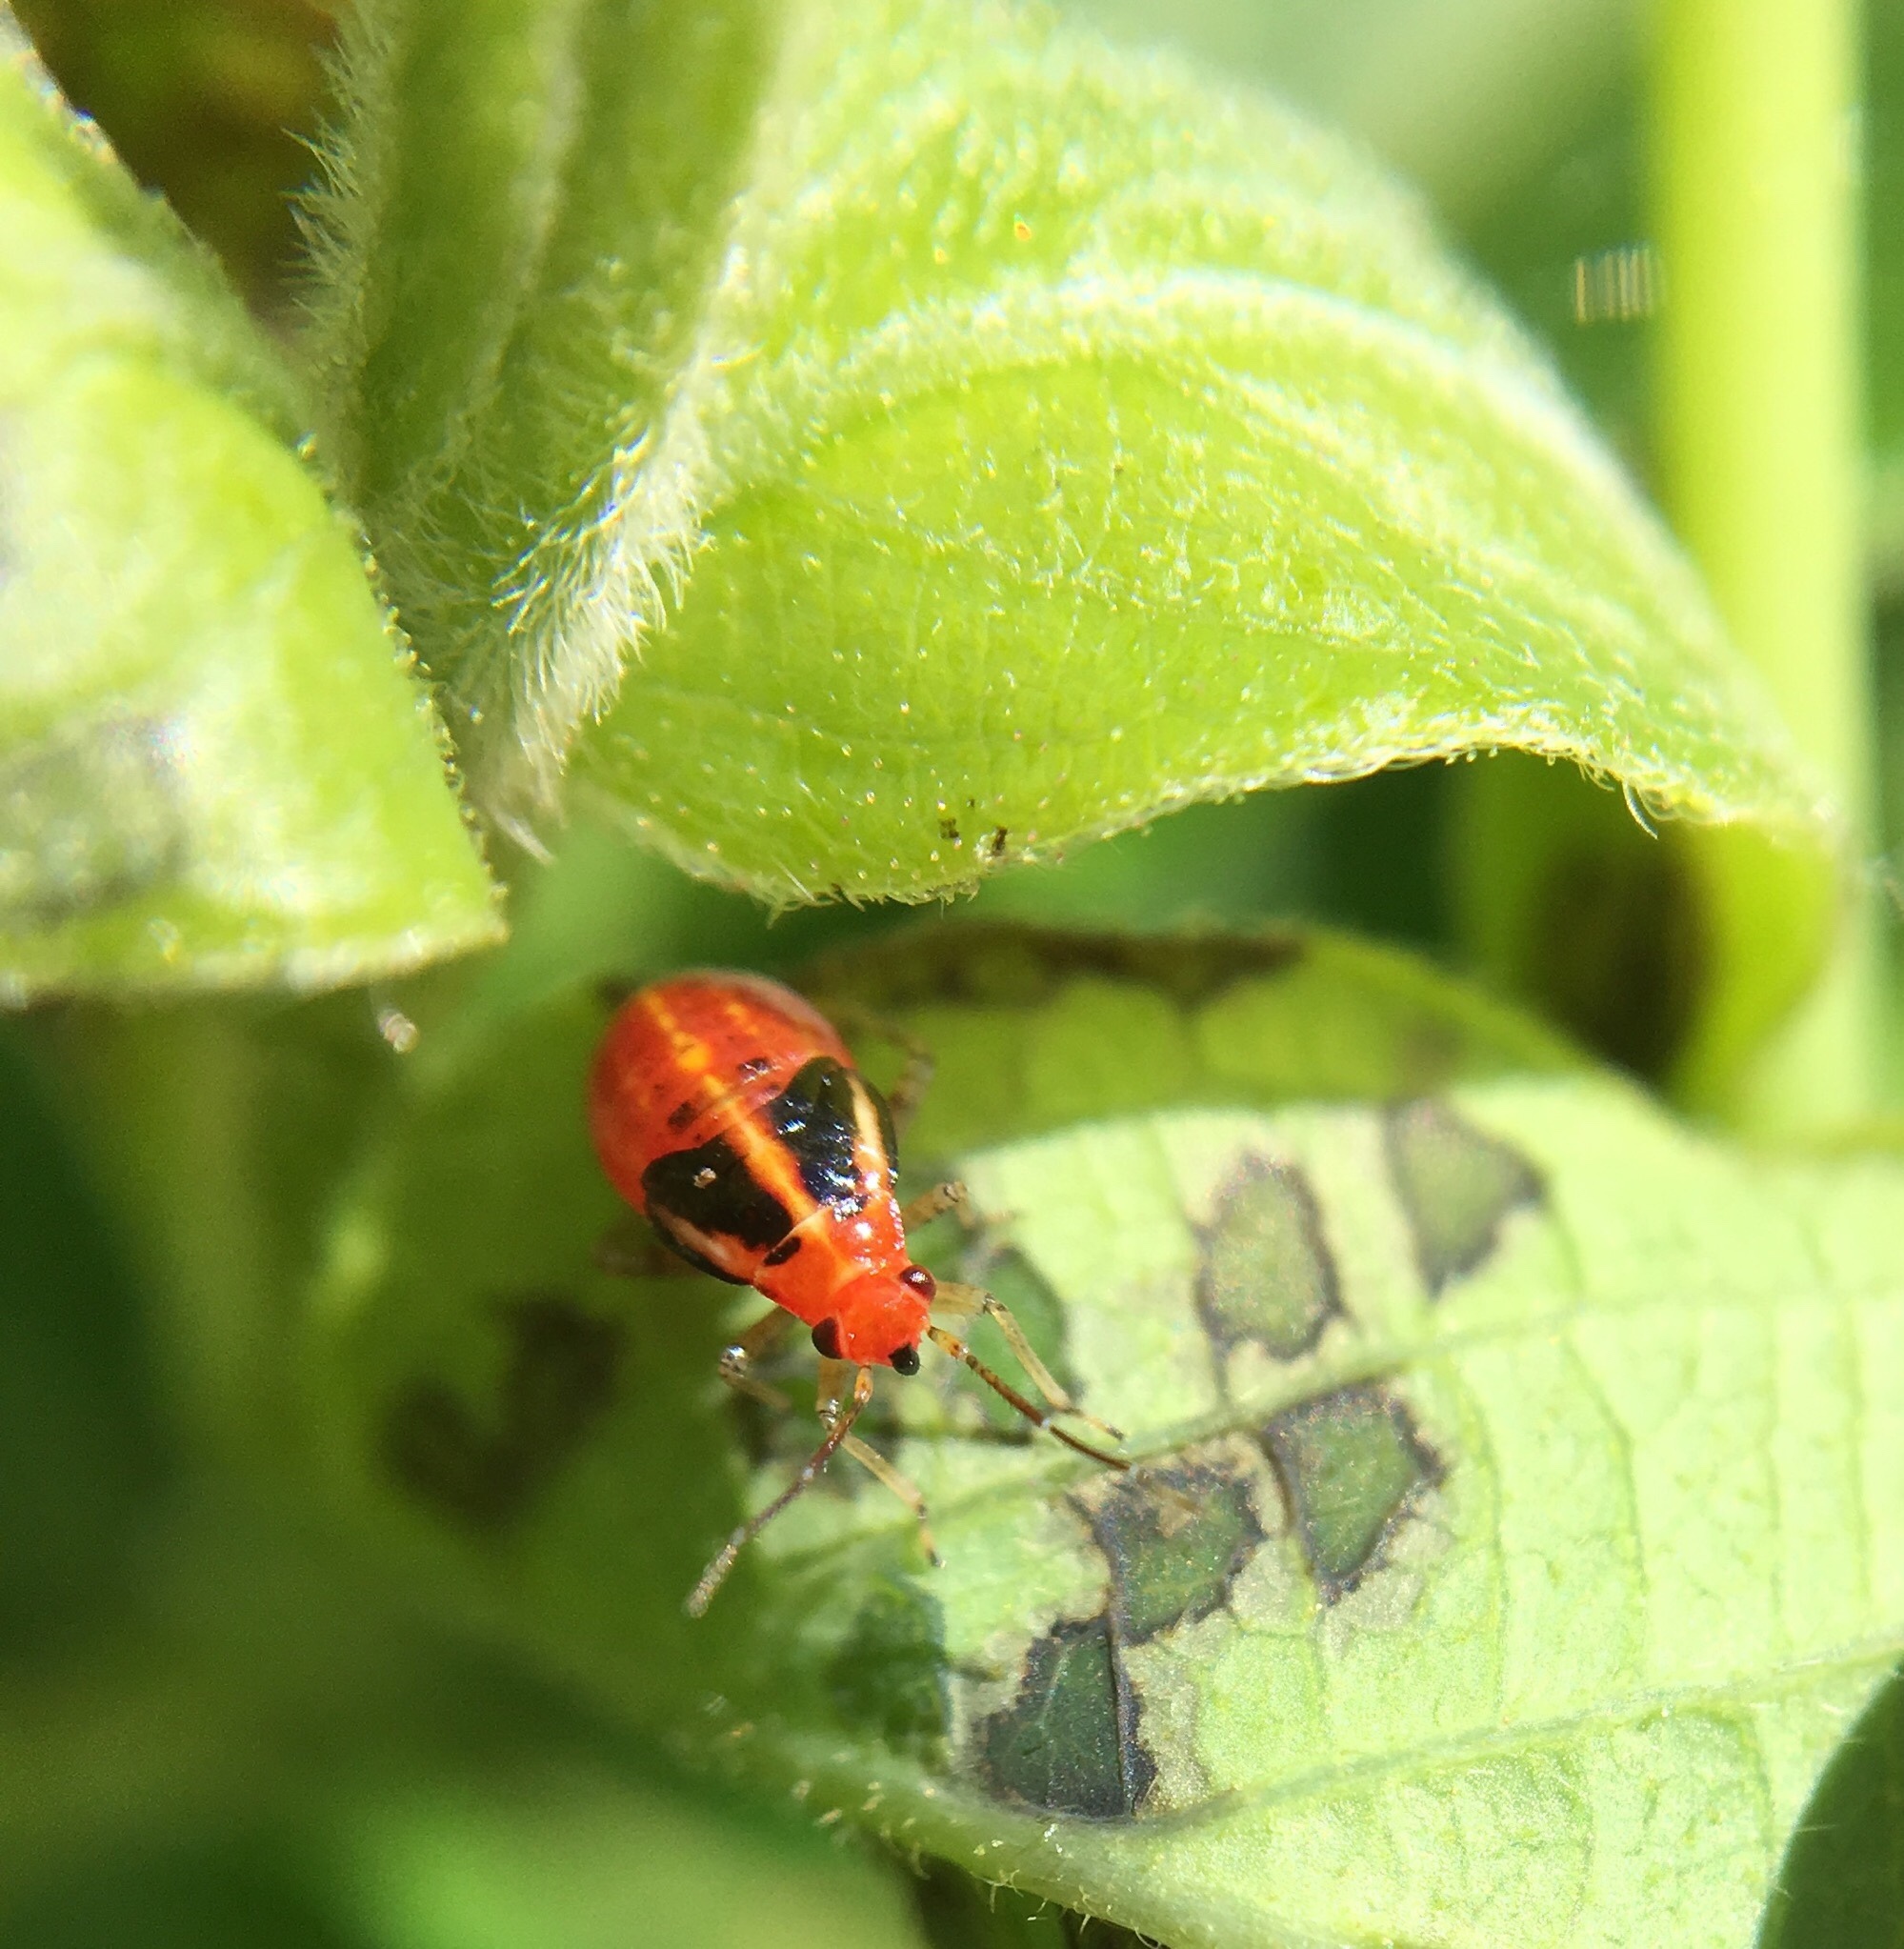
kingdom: Animalia
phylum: Arthropoda
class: Insecta
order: Hemiptera
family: Miridae
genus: Poecilocapsus
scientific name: Poecilocapsus lineatus
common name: Four-lined plant bug
